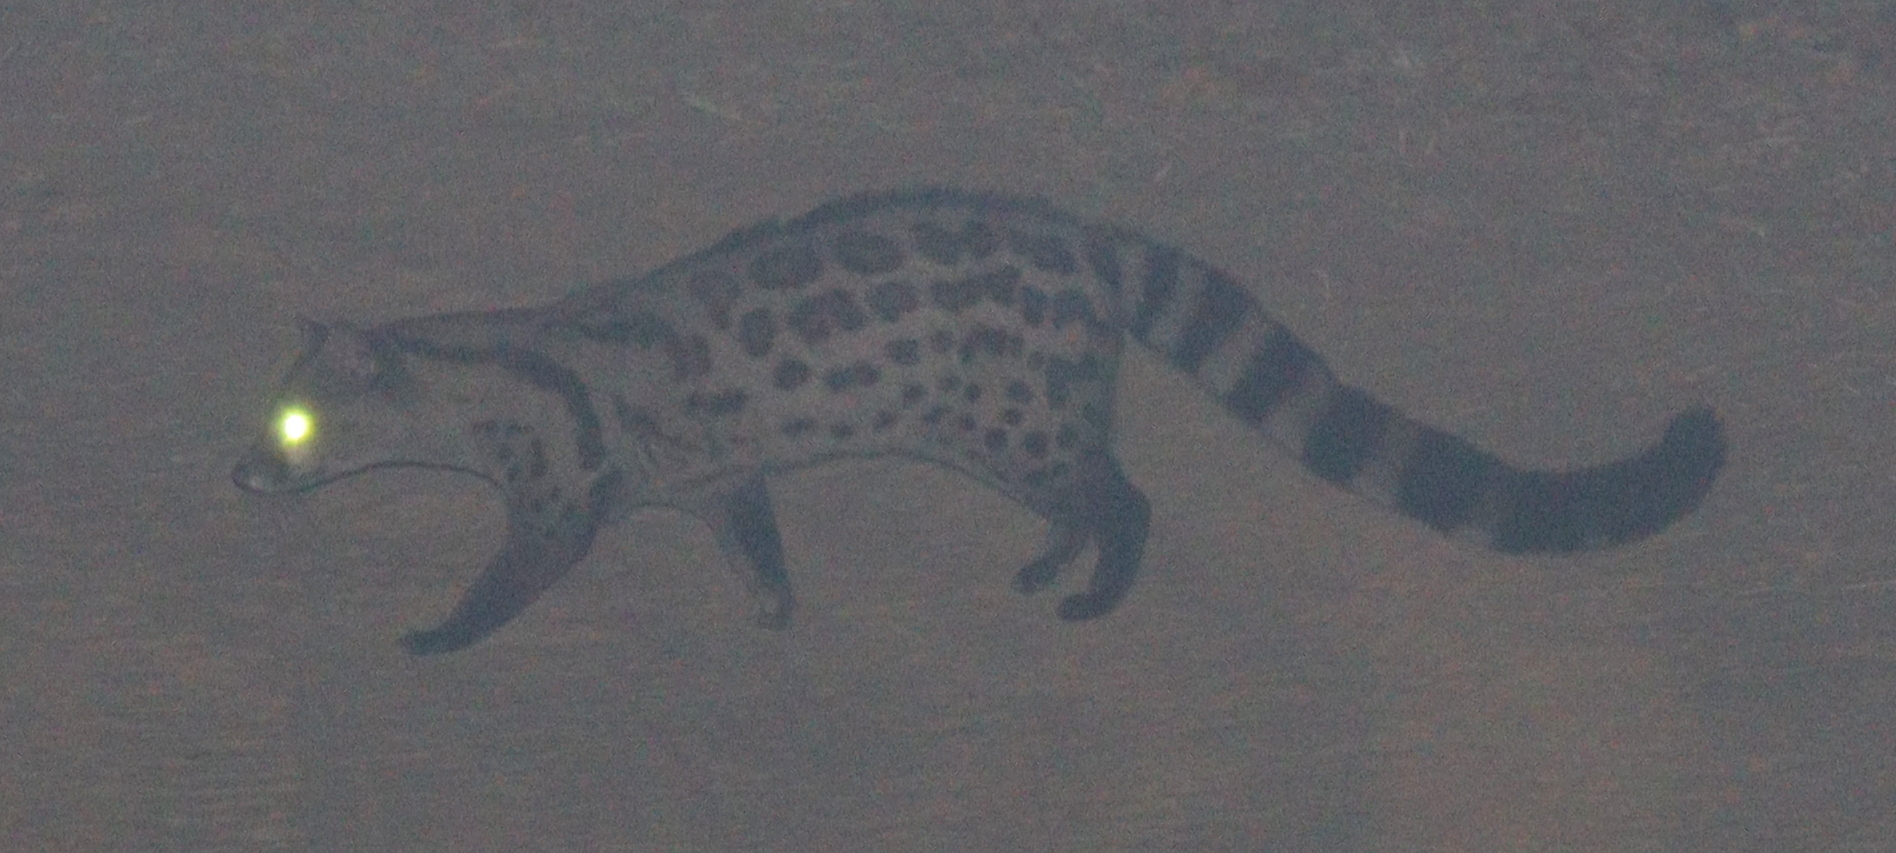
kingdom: Animalia
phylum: Chordata
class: Mammalia
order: Carnivora
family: Viverridae
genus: Genetta
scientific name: Genetta pardina
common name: Pardine genet
